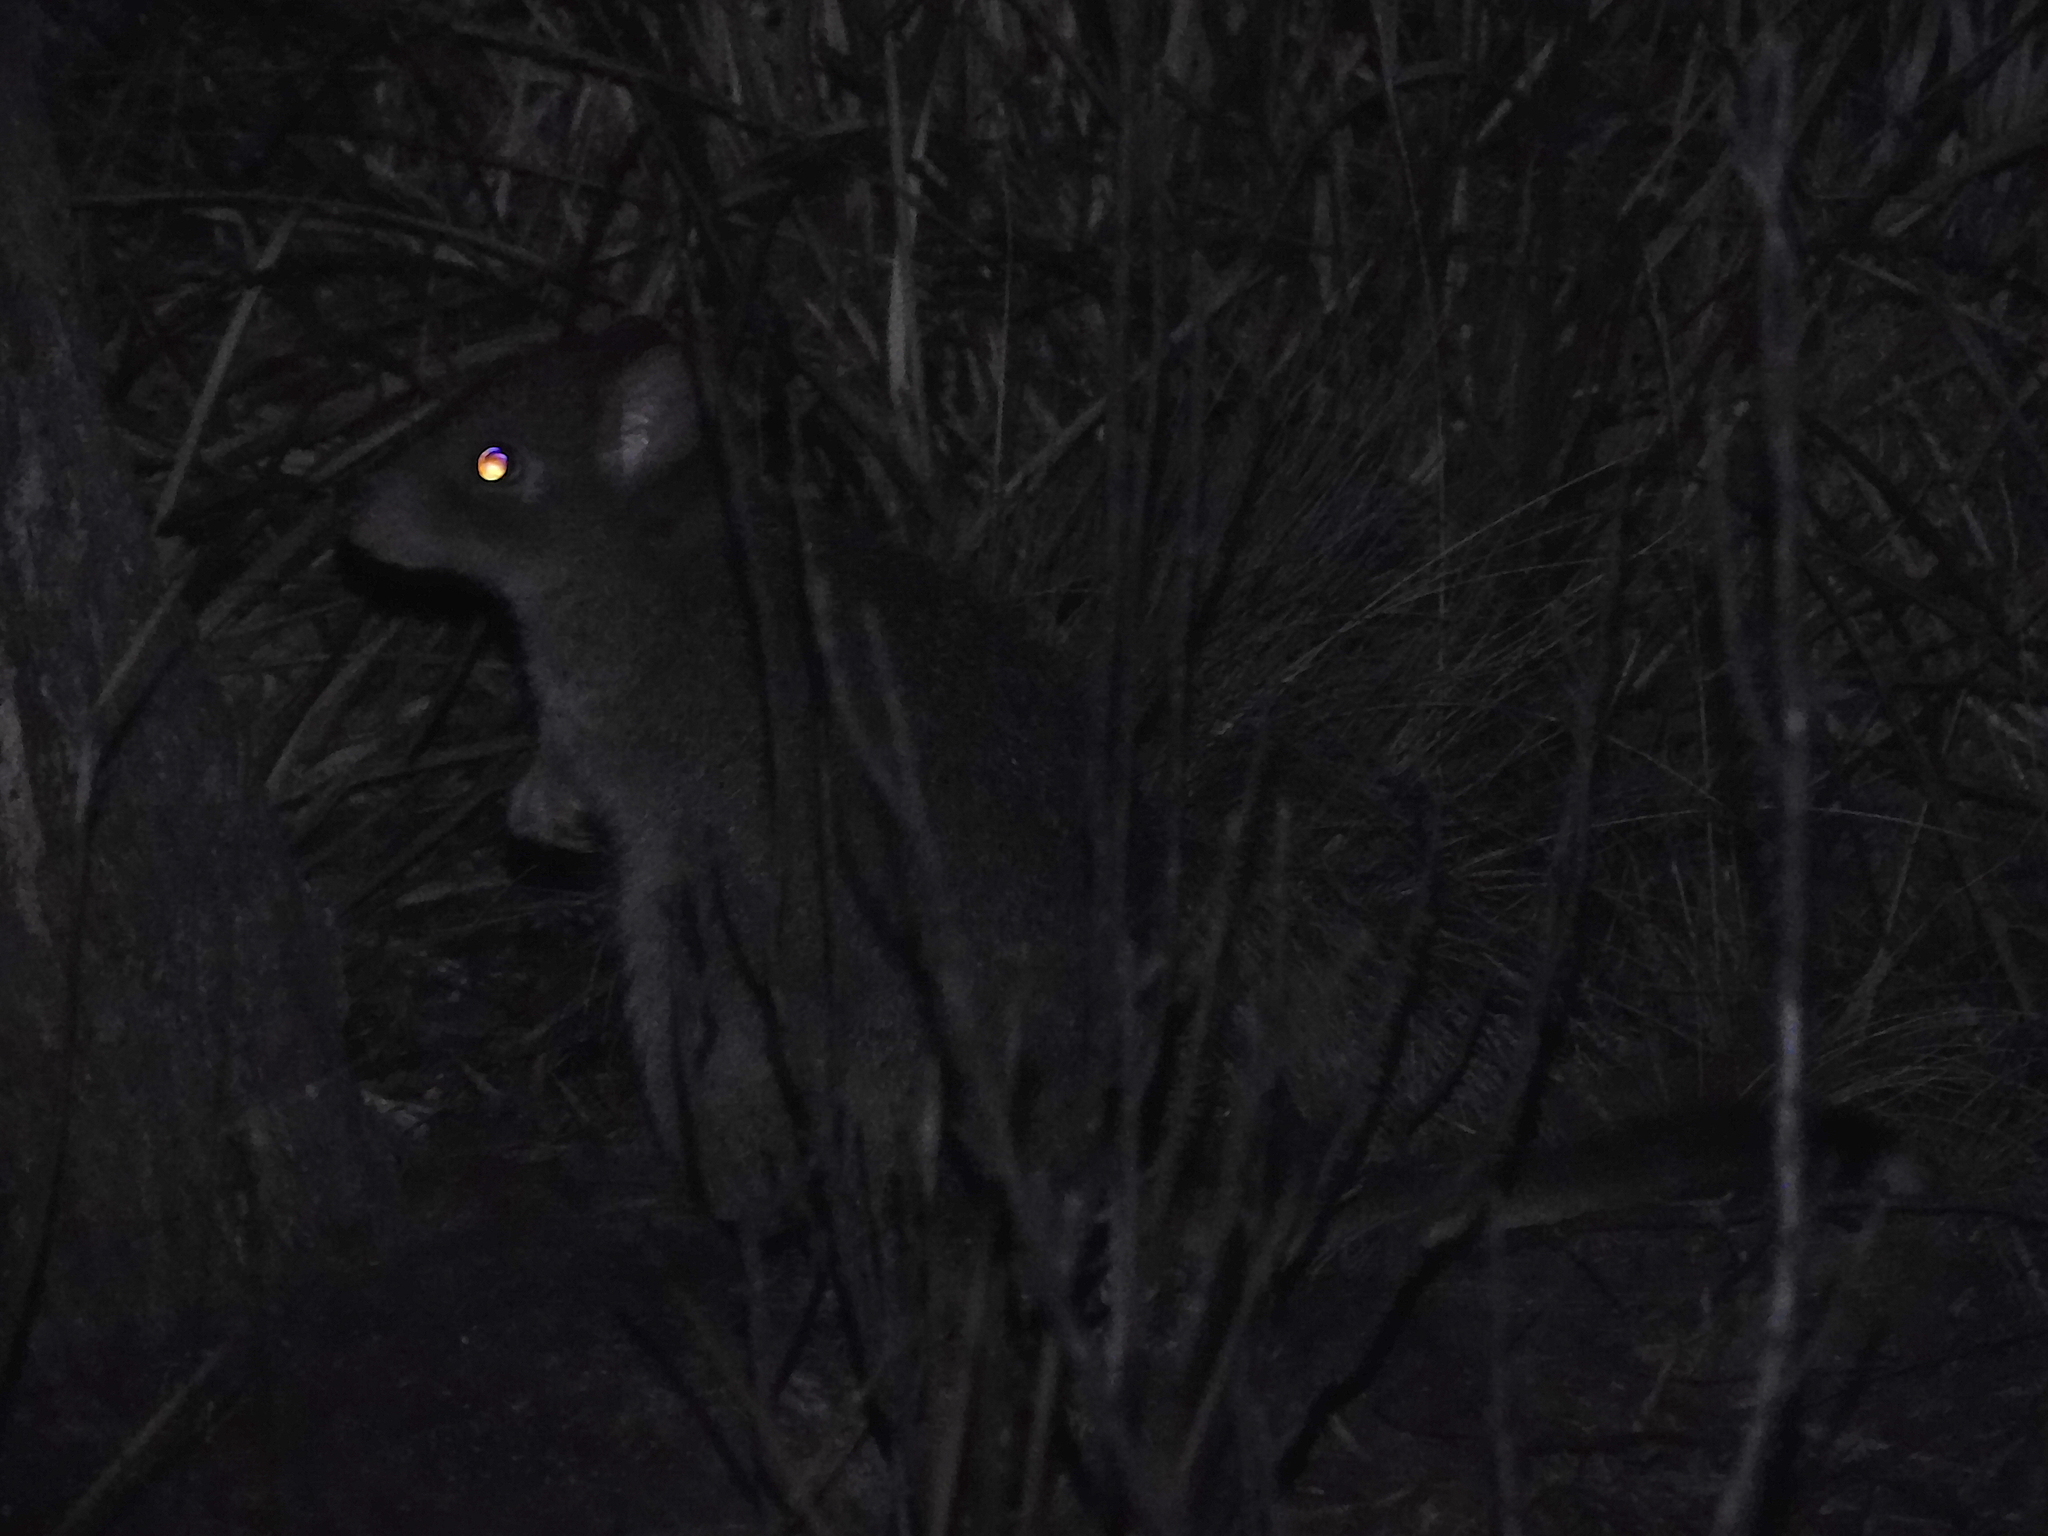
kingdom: Animalia
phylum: Chordata
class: Mammalia
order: Diprotodontia
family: Potoroidae
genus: Bettongia
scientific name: Bettongia gaimardi
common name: Eastern bettong
